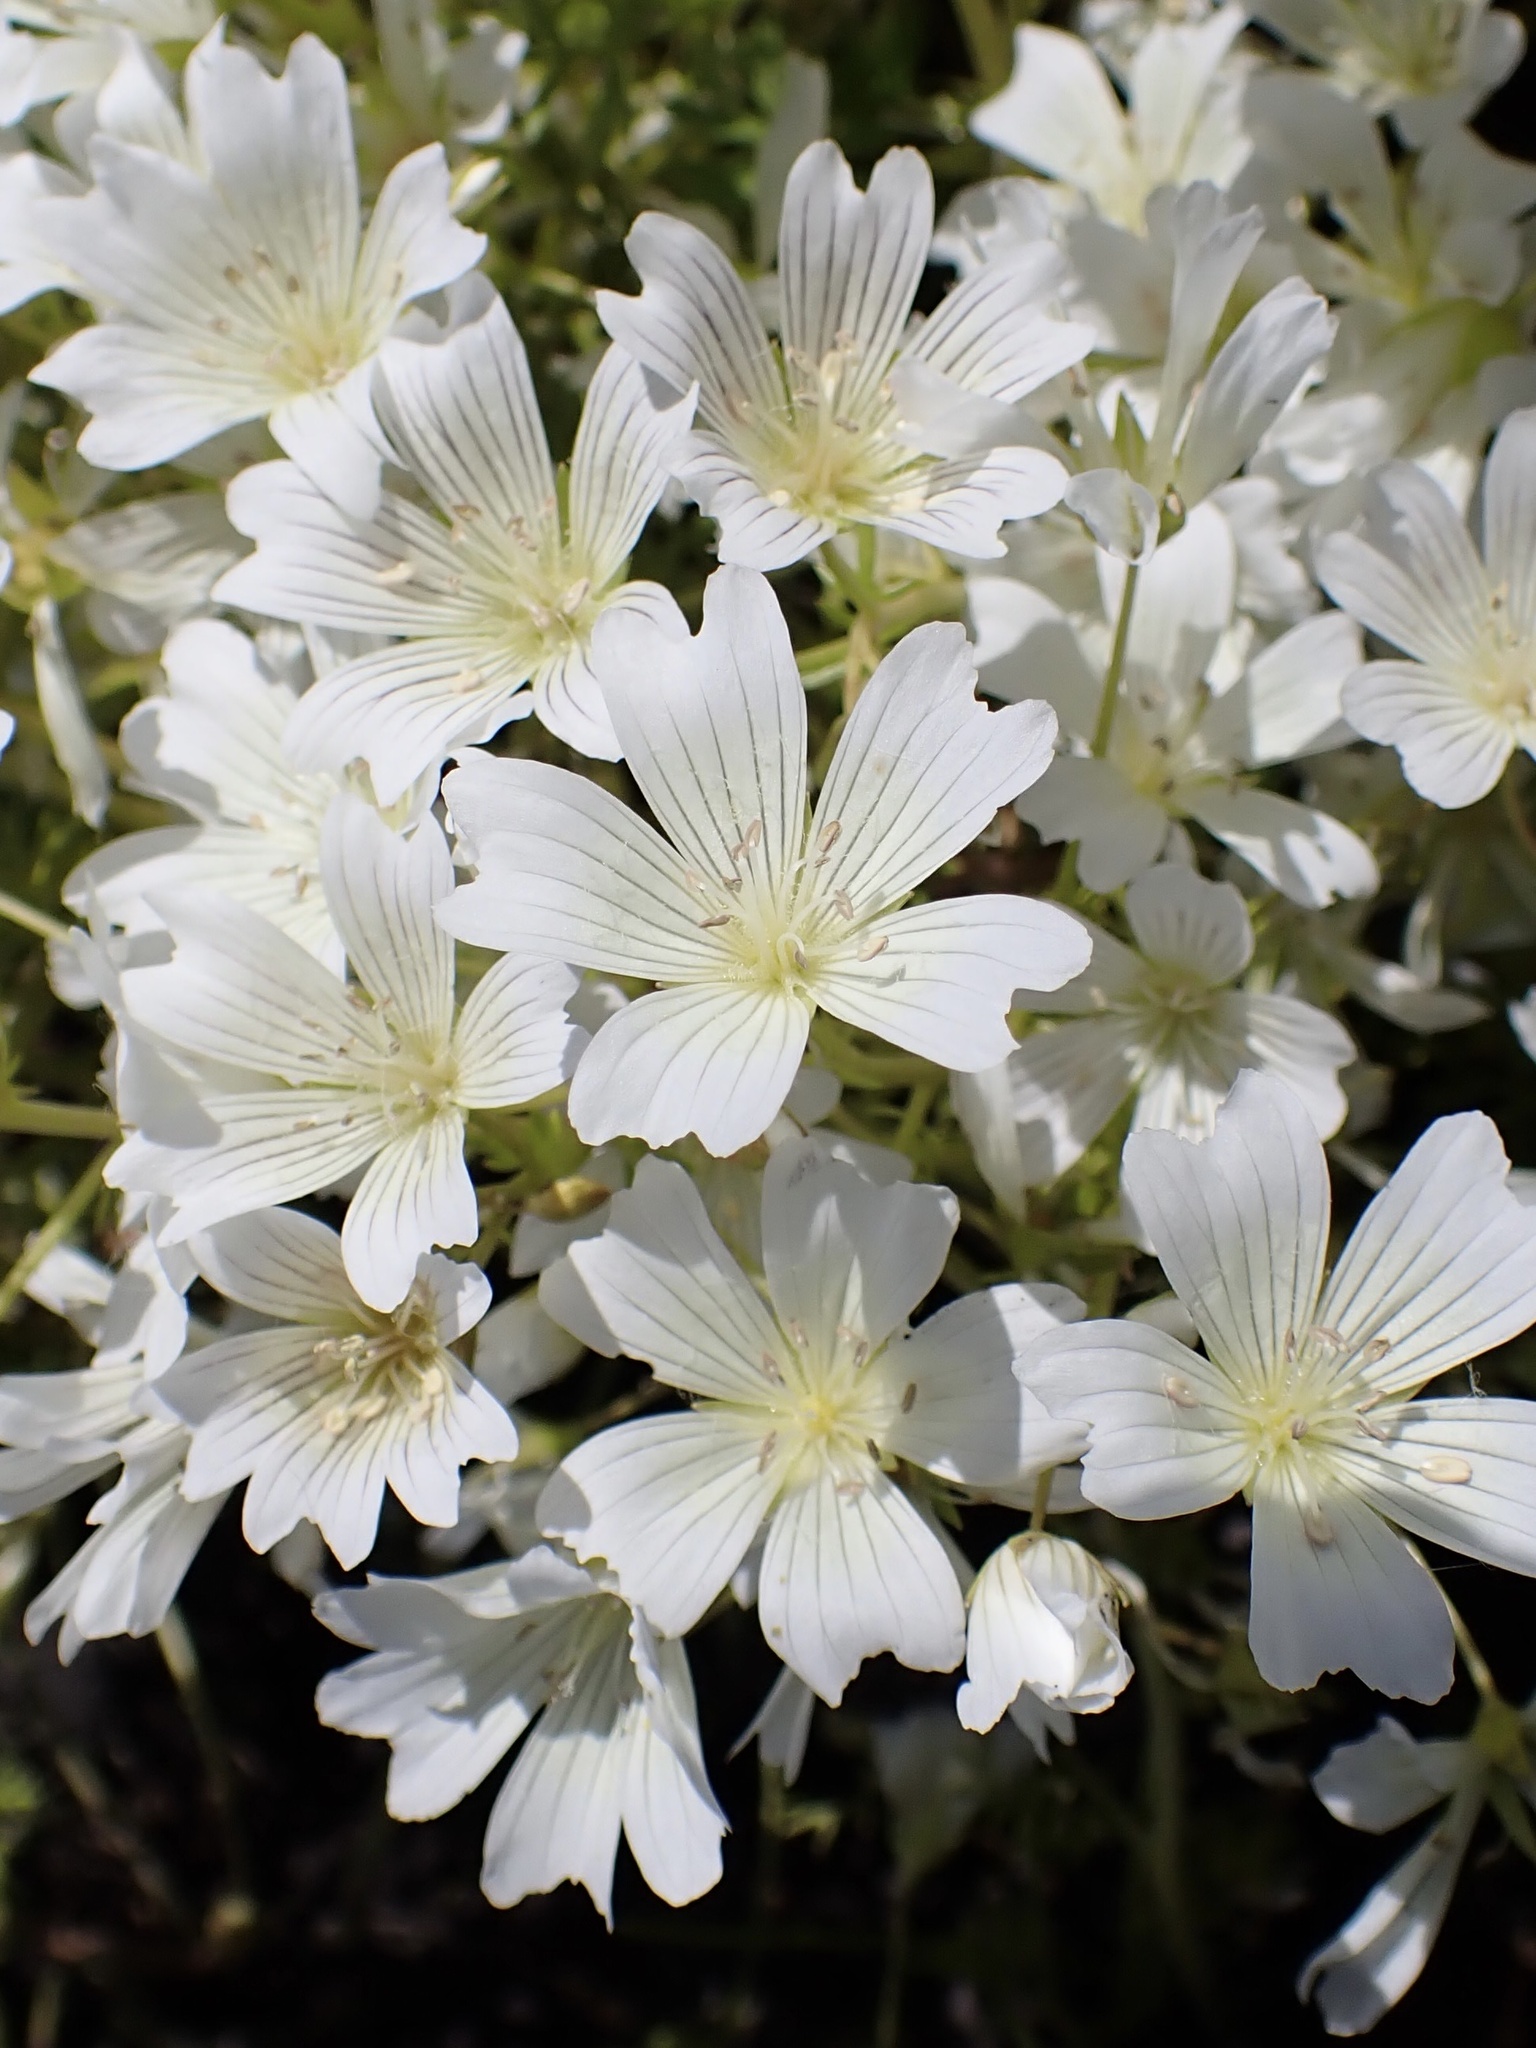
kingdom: Plantae
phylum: Tracheophyta
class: Magnoliopsida
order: Brassicales
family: Limnanthaceae
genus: Limnanthes
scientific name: Limnanthes douglasii
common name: Meadow-foam
